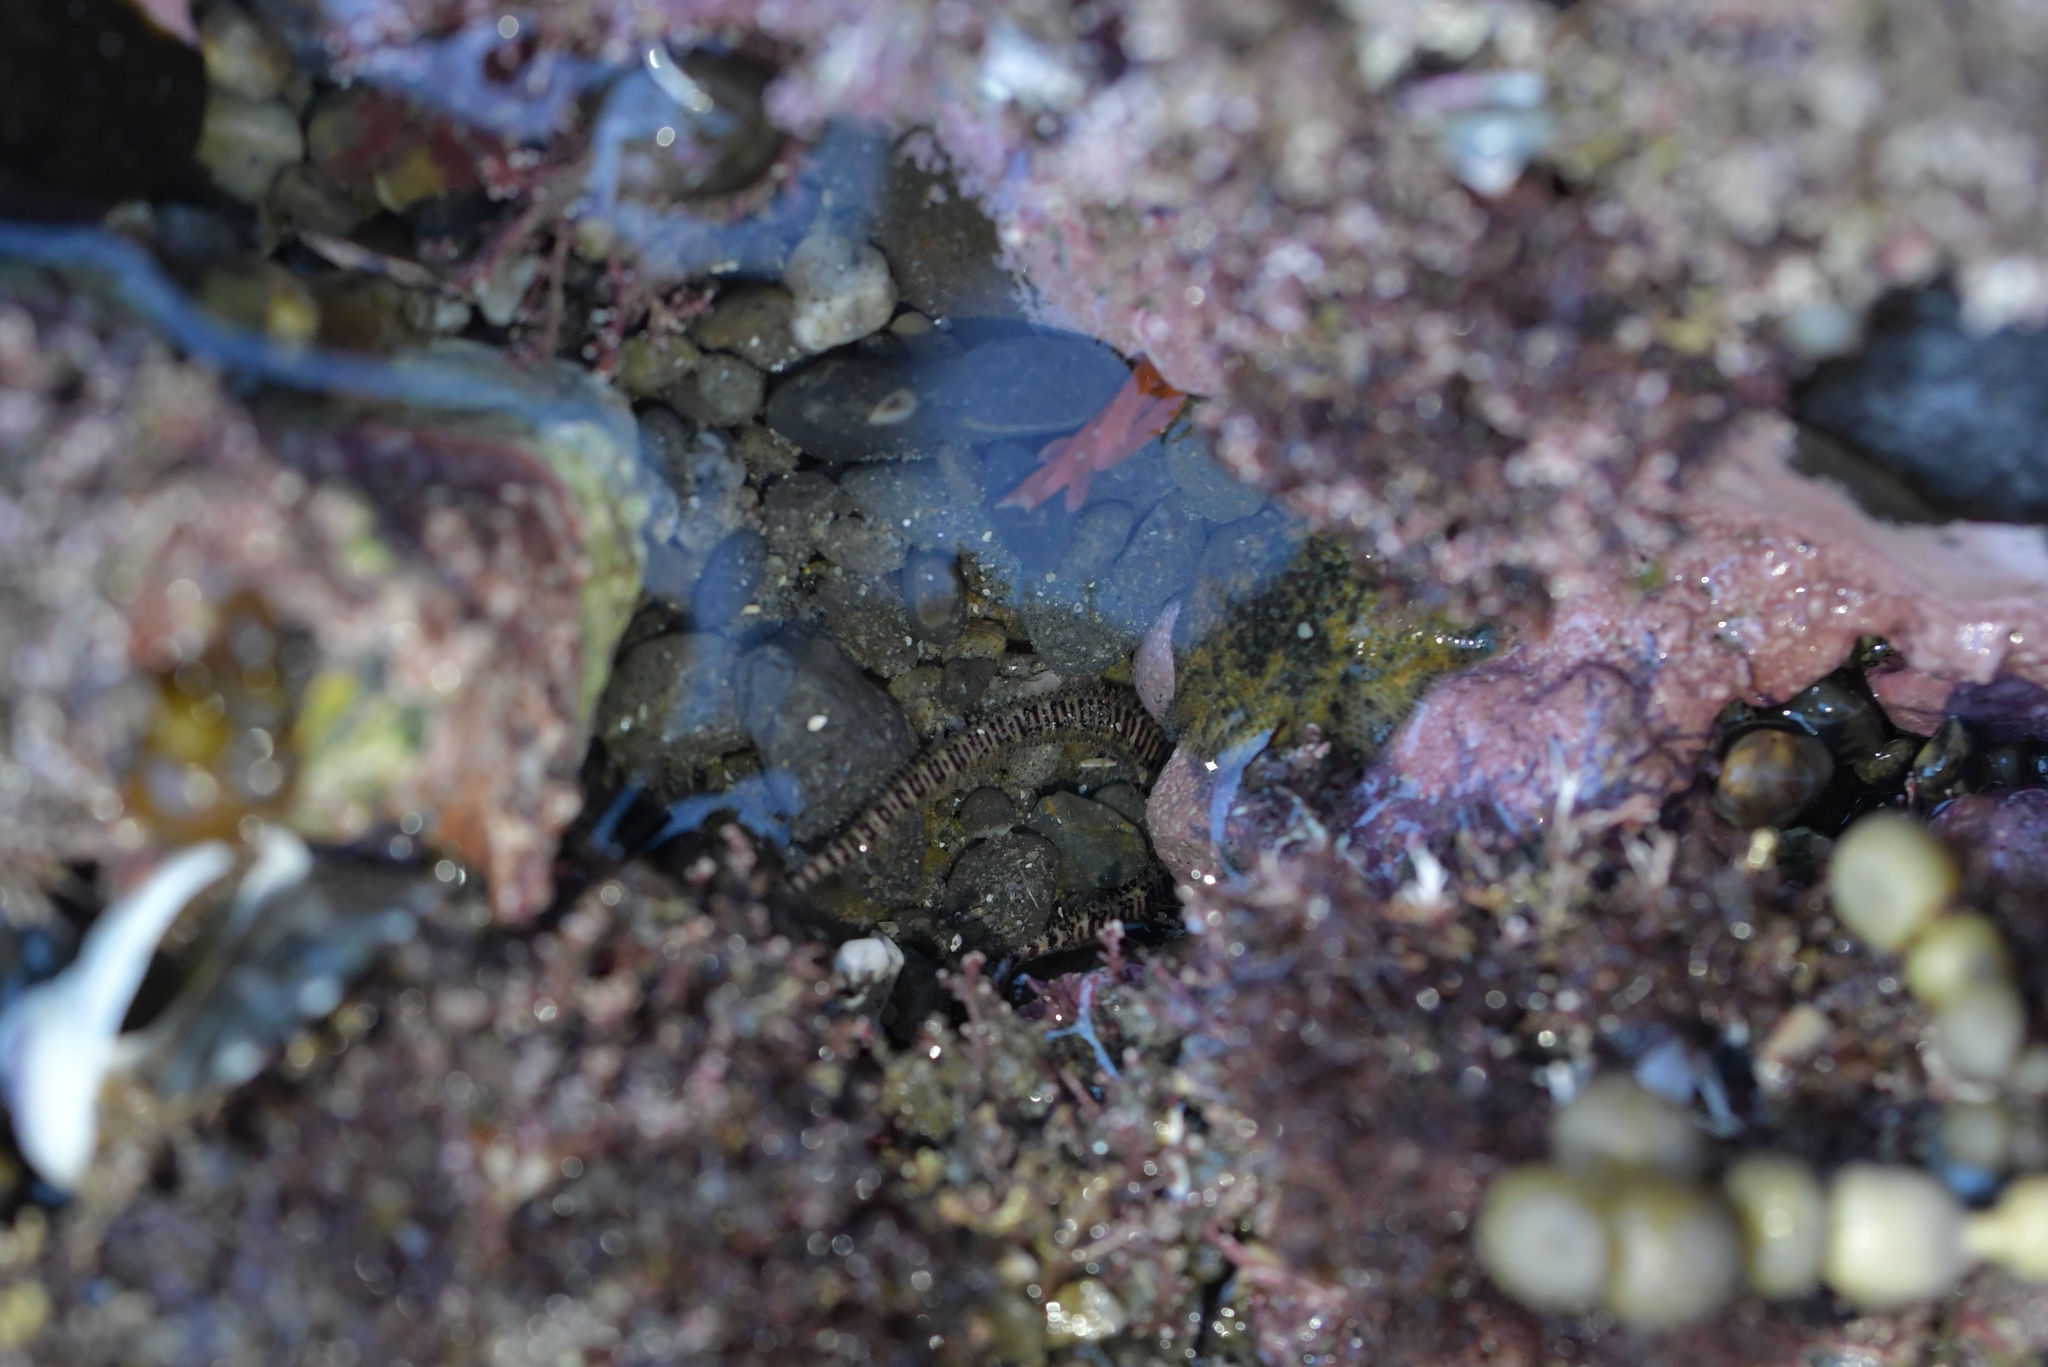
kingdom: Animalia
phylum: Echinodermata
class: Ophiuroidea
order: Amphilepidida
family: Ophionereididae
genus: Ophionereis
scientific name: Ophionereis fasciata
